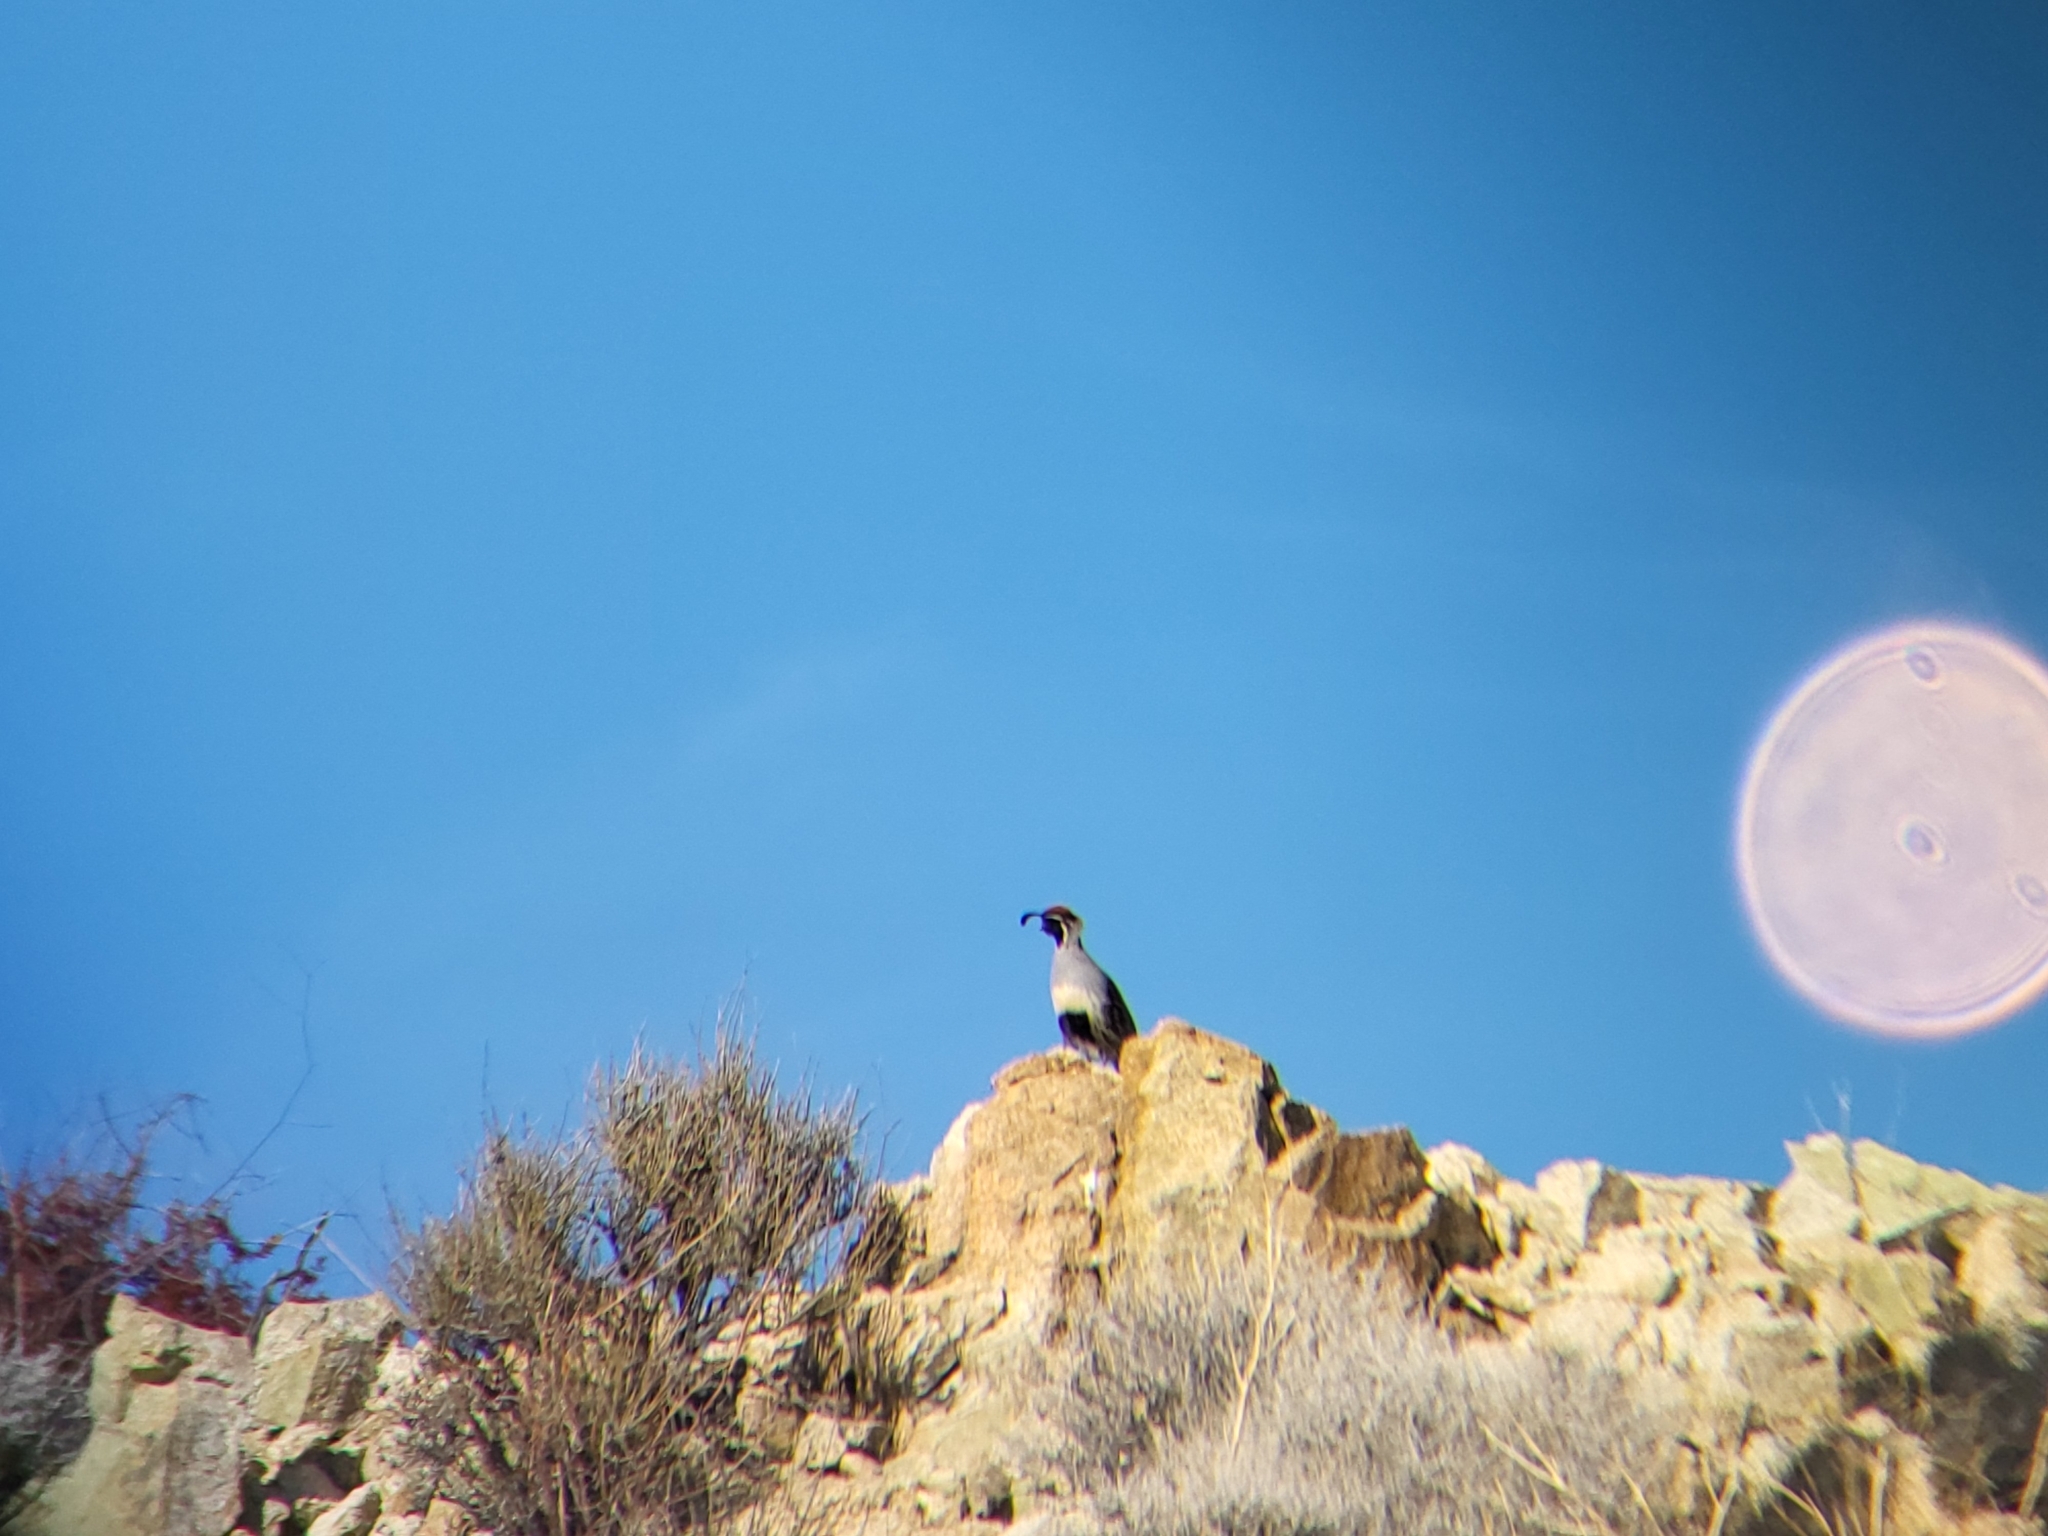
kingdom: Animalia
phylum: Chordata
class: Aves
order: Galliformes
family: Odontophoridae
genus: Callipepla
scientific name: Callipepla gambelii
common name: Gambel's quail
